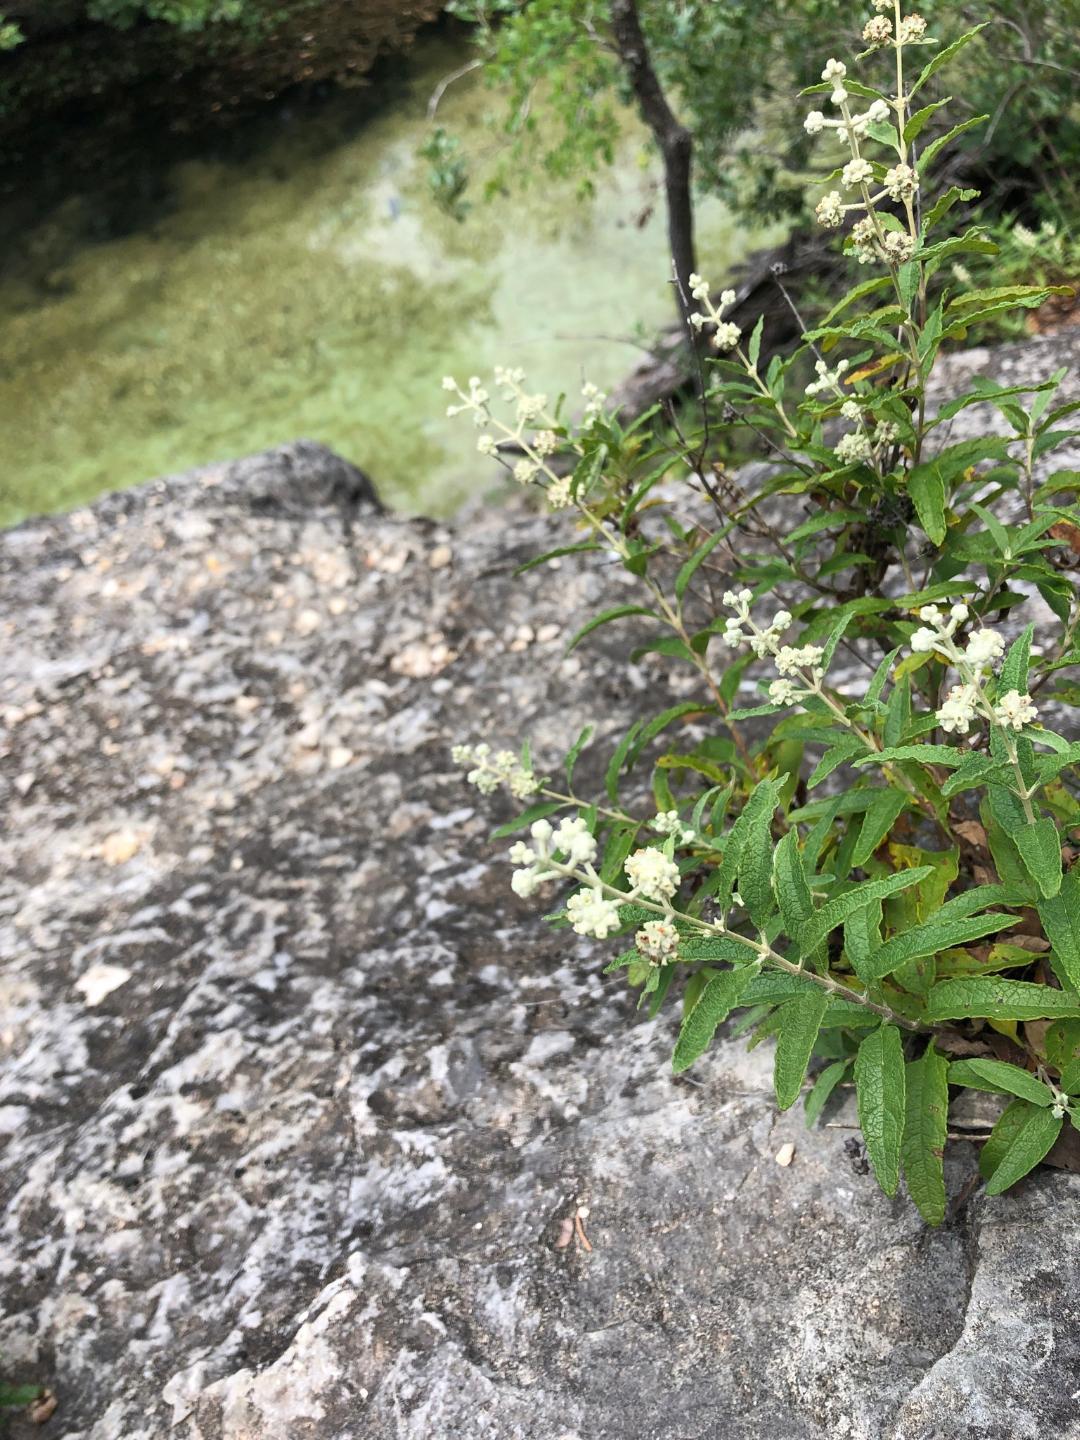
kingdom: Plantae
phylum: Tracheophyta
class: Magnoliopsida
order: Lamiales
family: Scrophulariaceae
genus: Buddleja
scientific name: Buddleja racemosa
